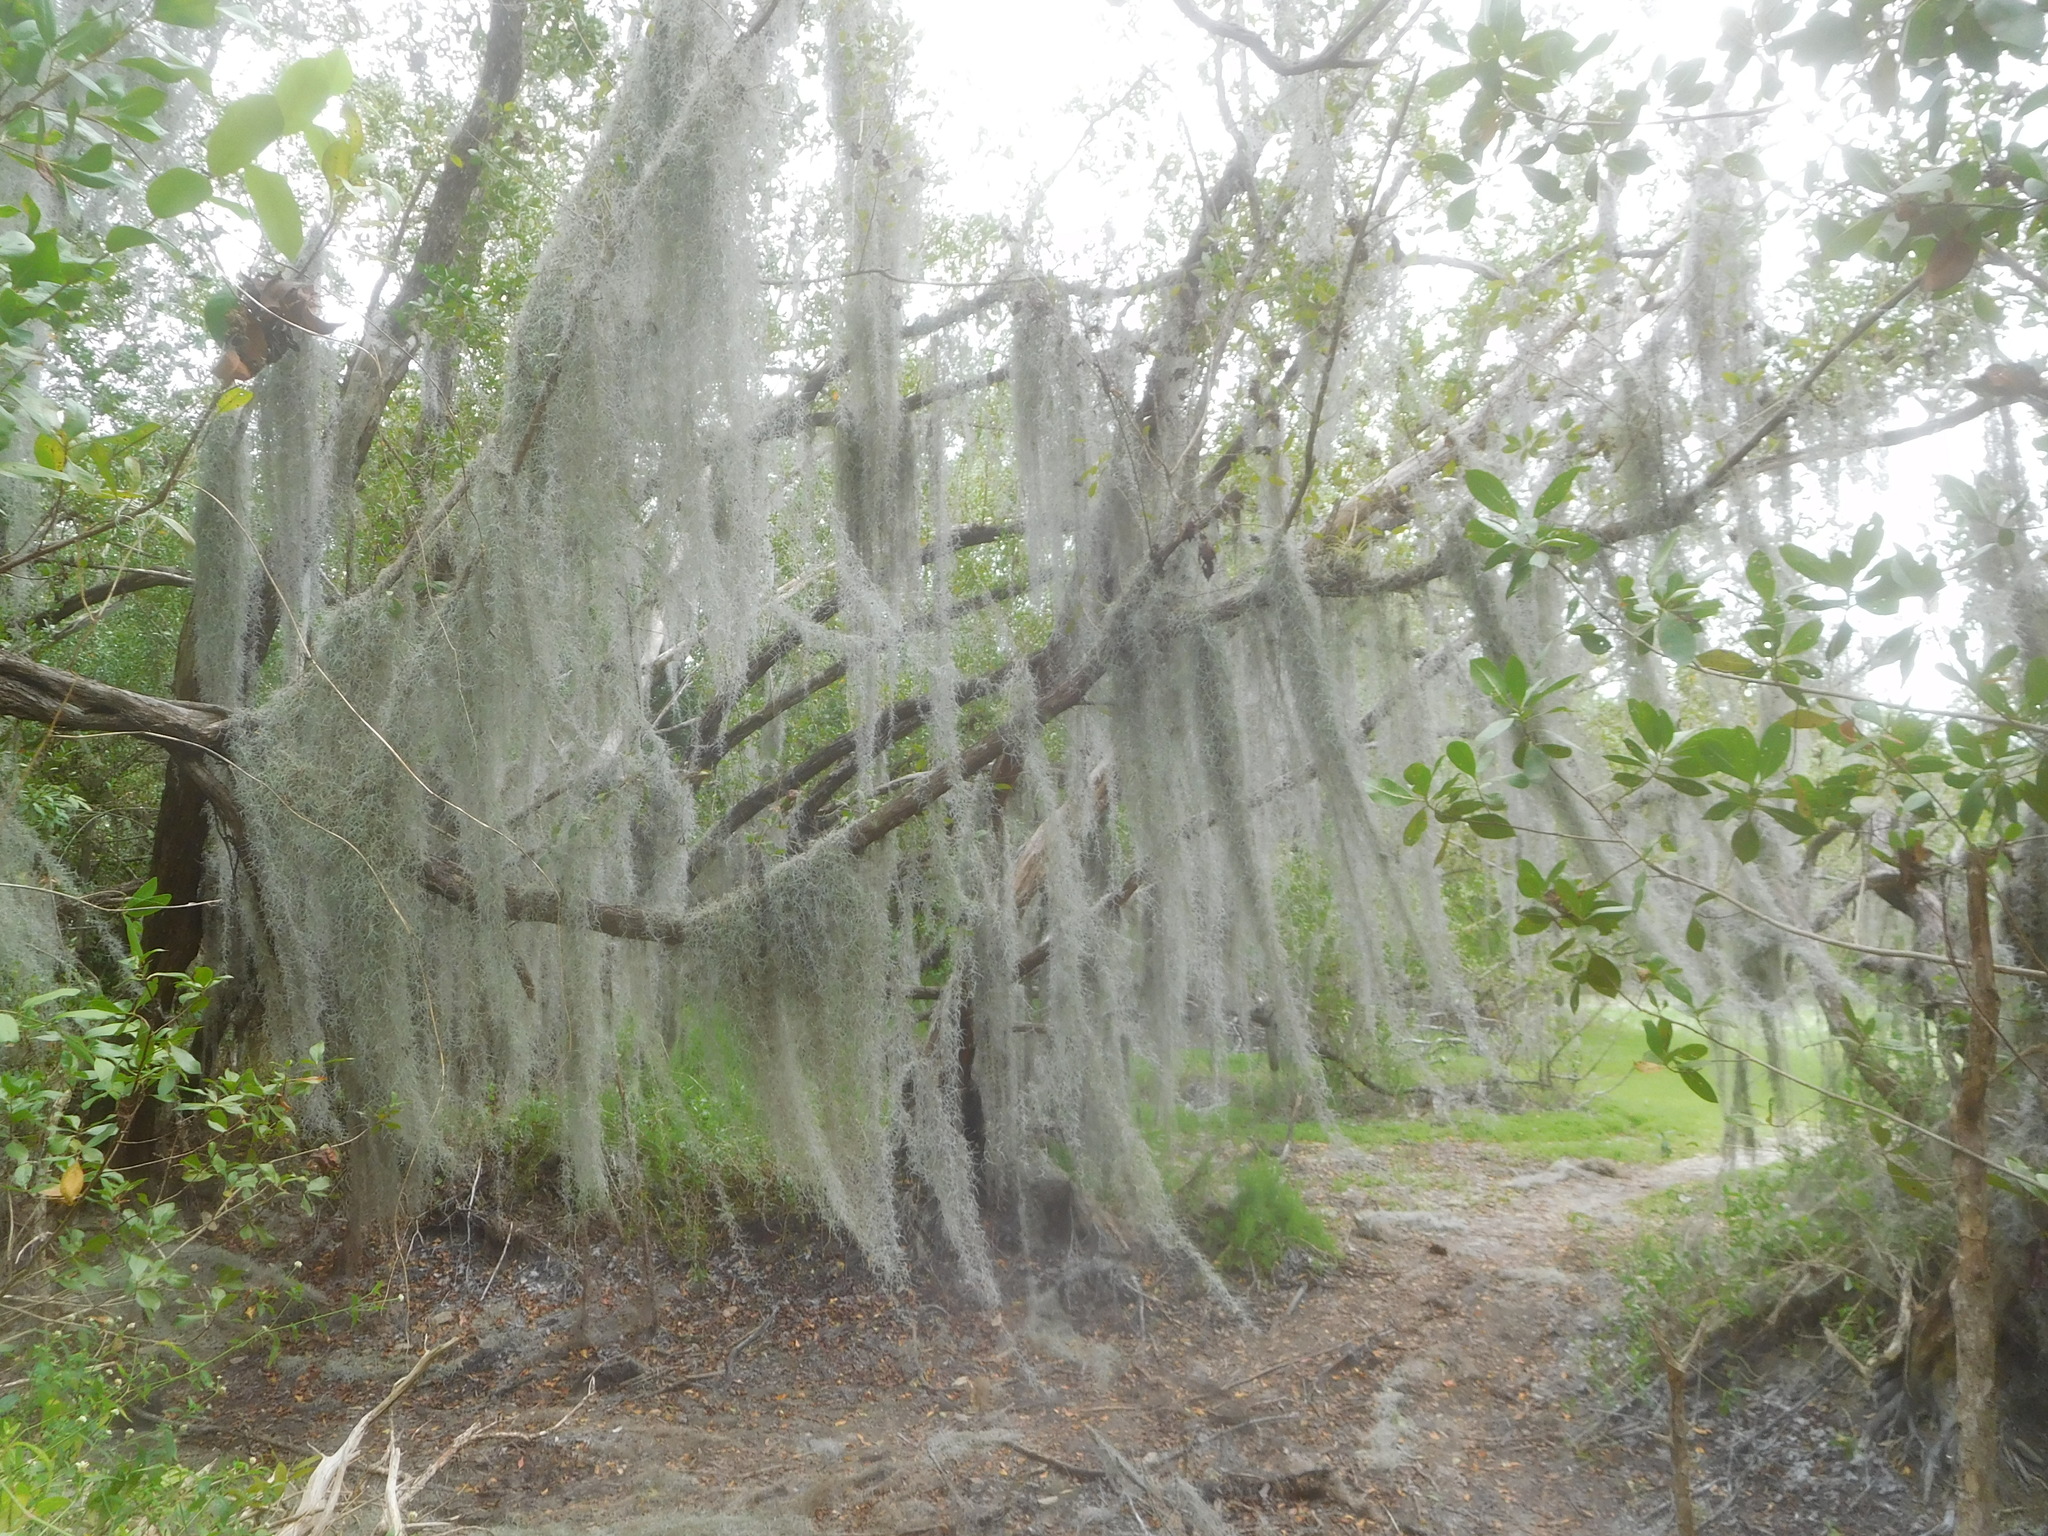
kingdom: Plantae
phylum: Tracheophyta
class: Liliopsida
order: Poales
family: Bromeliaceae
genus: Tillandsia
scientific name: Tillandsia usneoides
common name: Spanish moss
